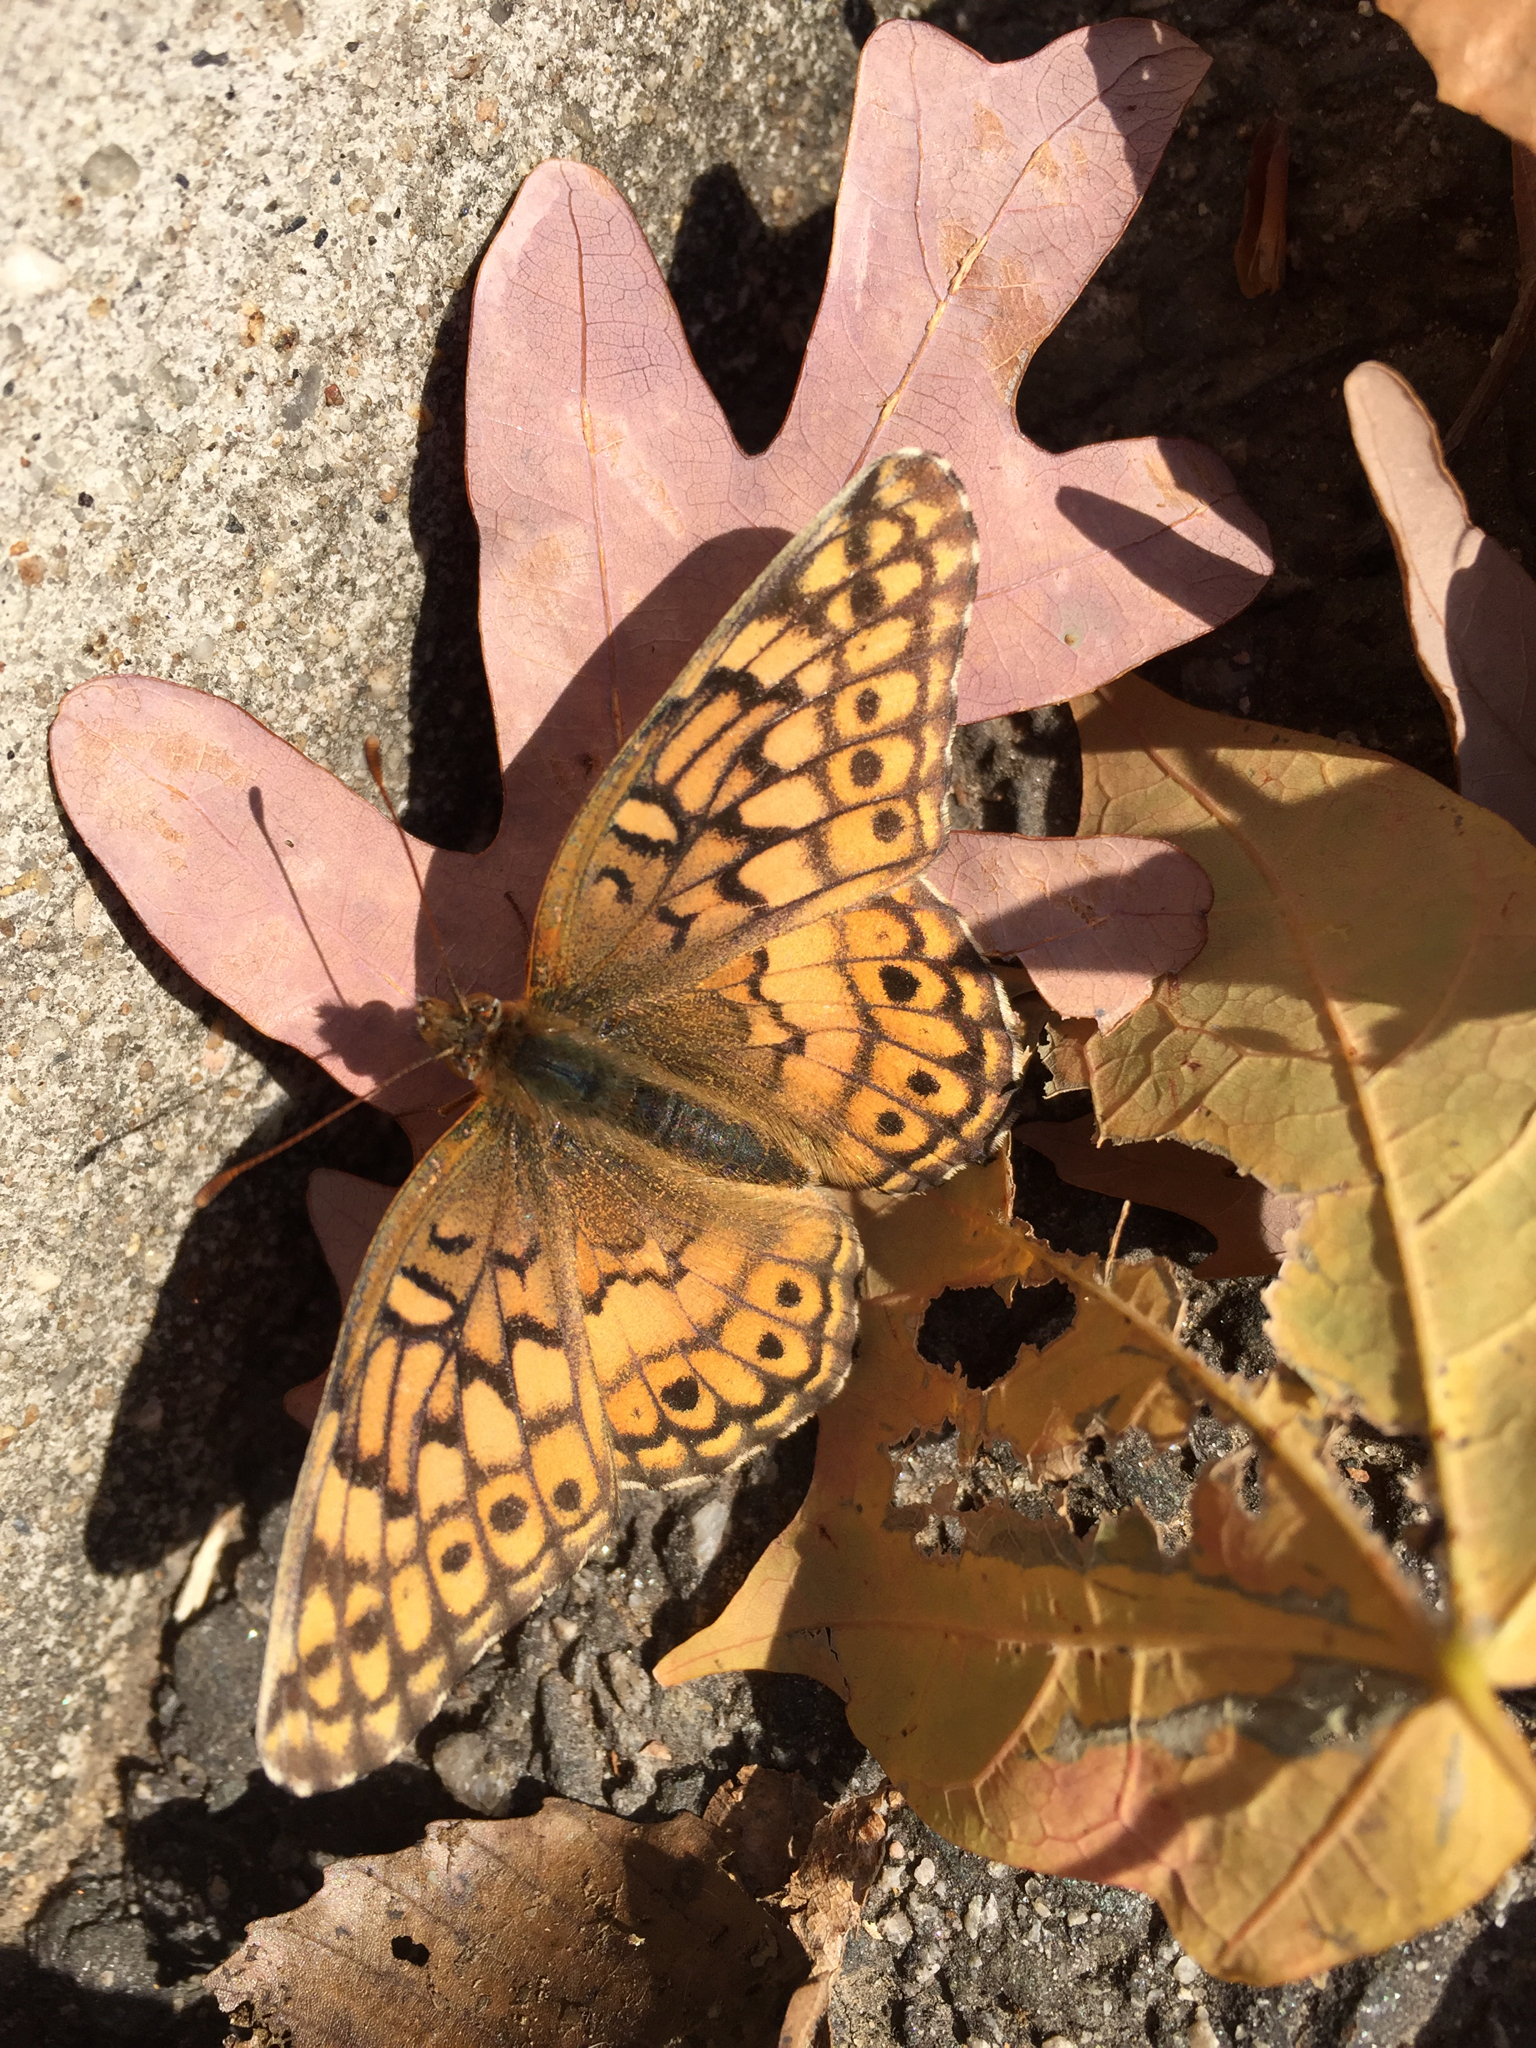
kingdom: Animalia
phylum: Arthropoda
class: Insecta
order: Lepidoptera
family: Nymphalidae
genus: Euptoieta
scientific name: Euptoieta claudia
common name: Variegated fritillary
